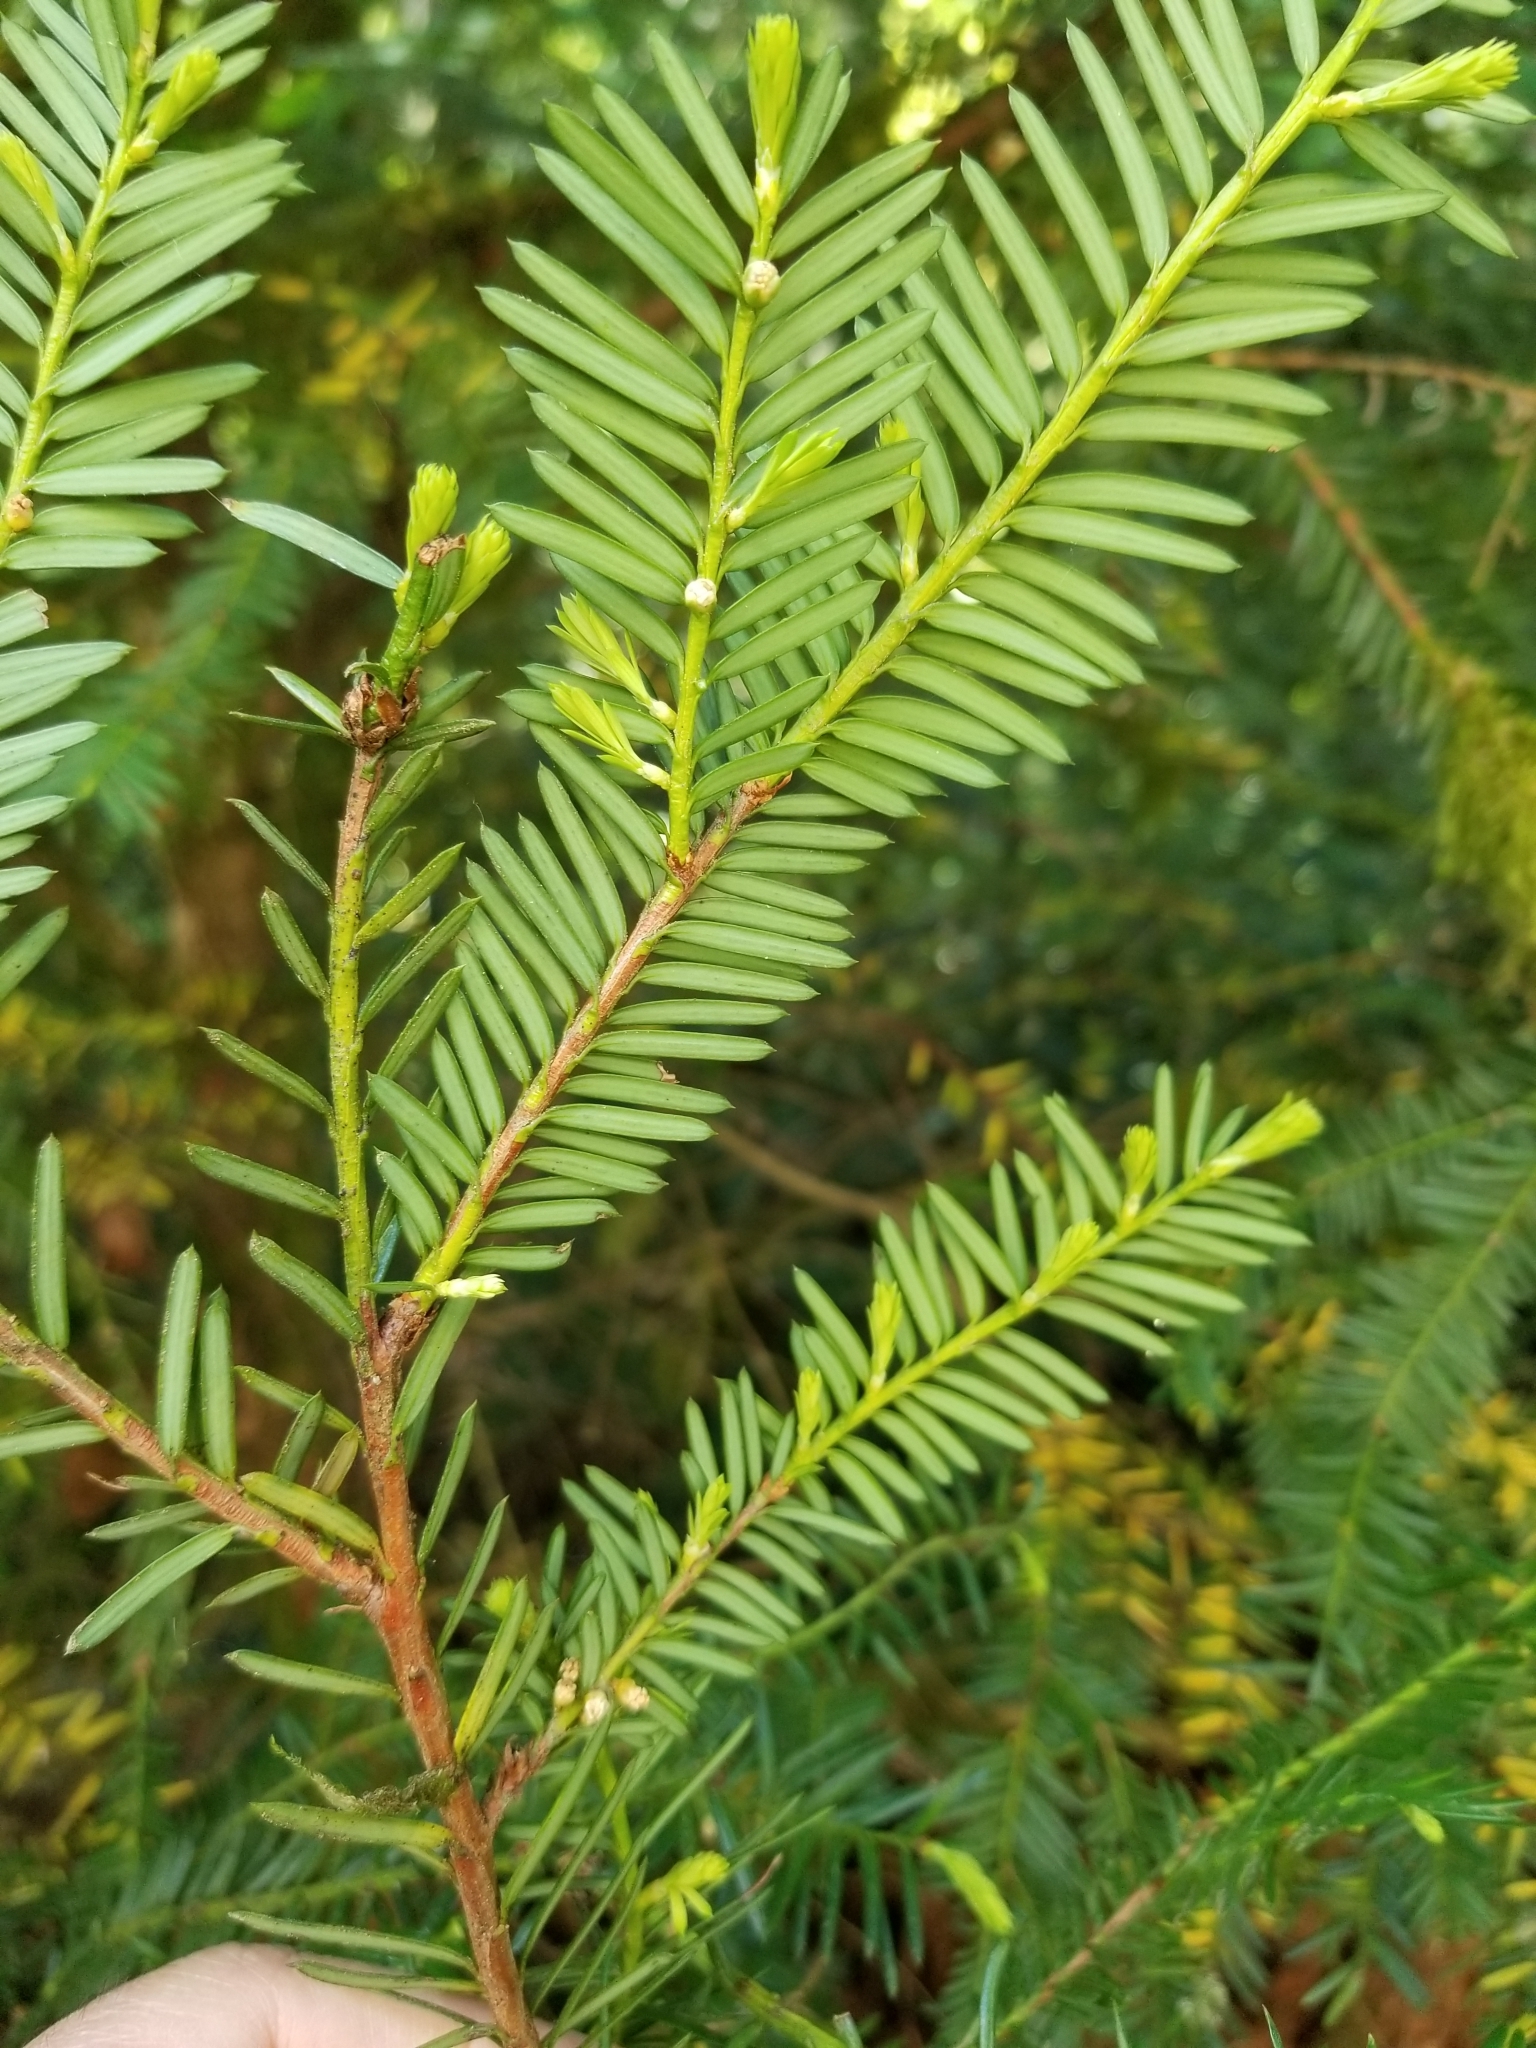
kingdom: Plantae
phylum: Tracheophyta
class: Pinopsida
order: Pinales
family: Taxaceae
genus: Taxus
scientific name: Taxus brevifolia
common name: Pacific yew
